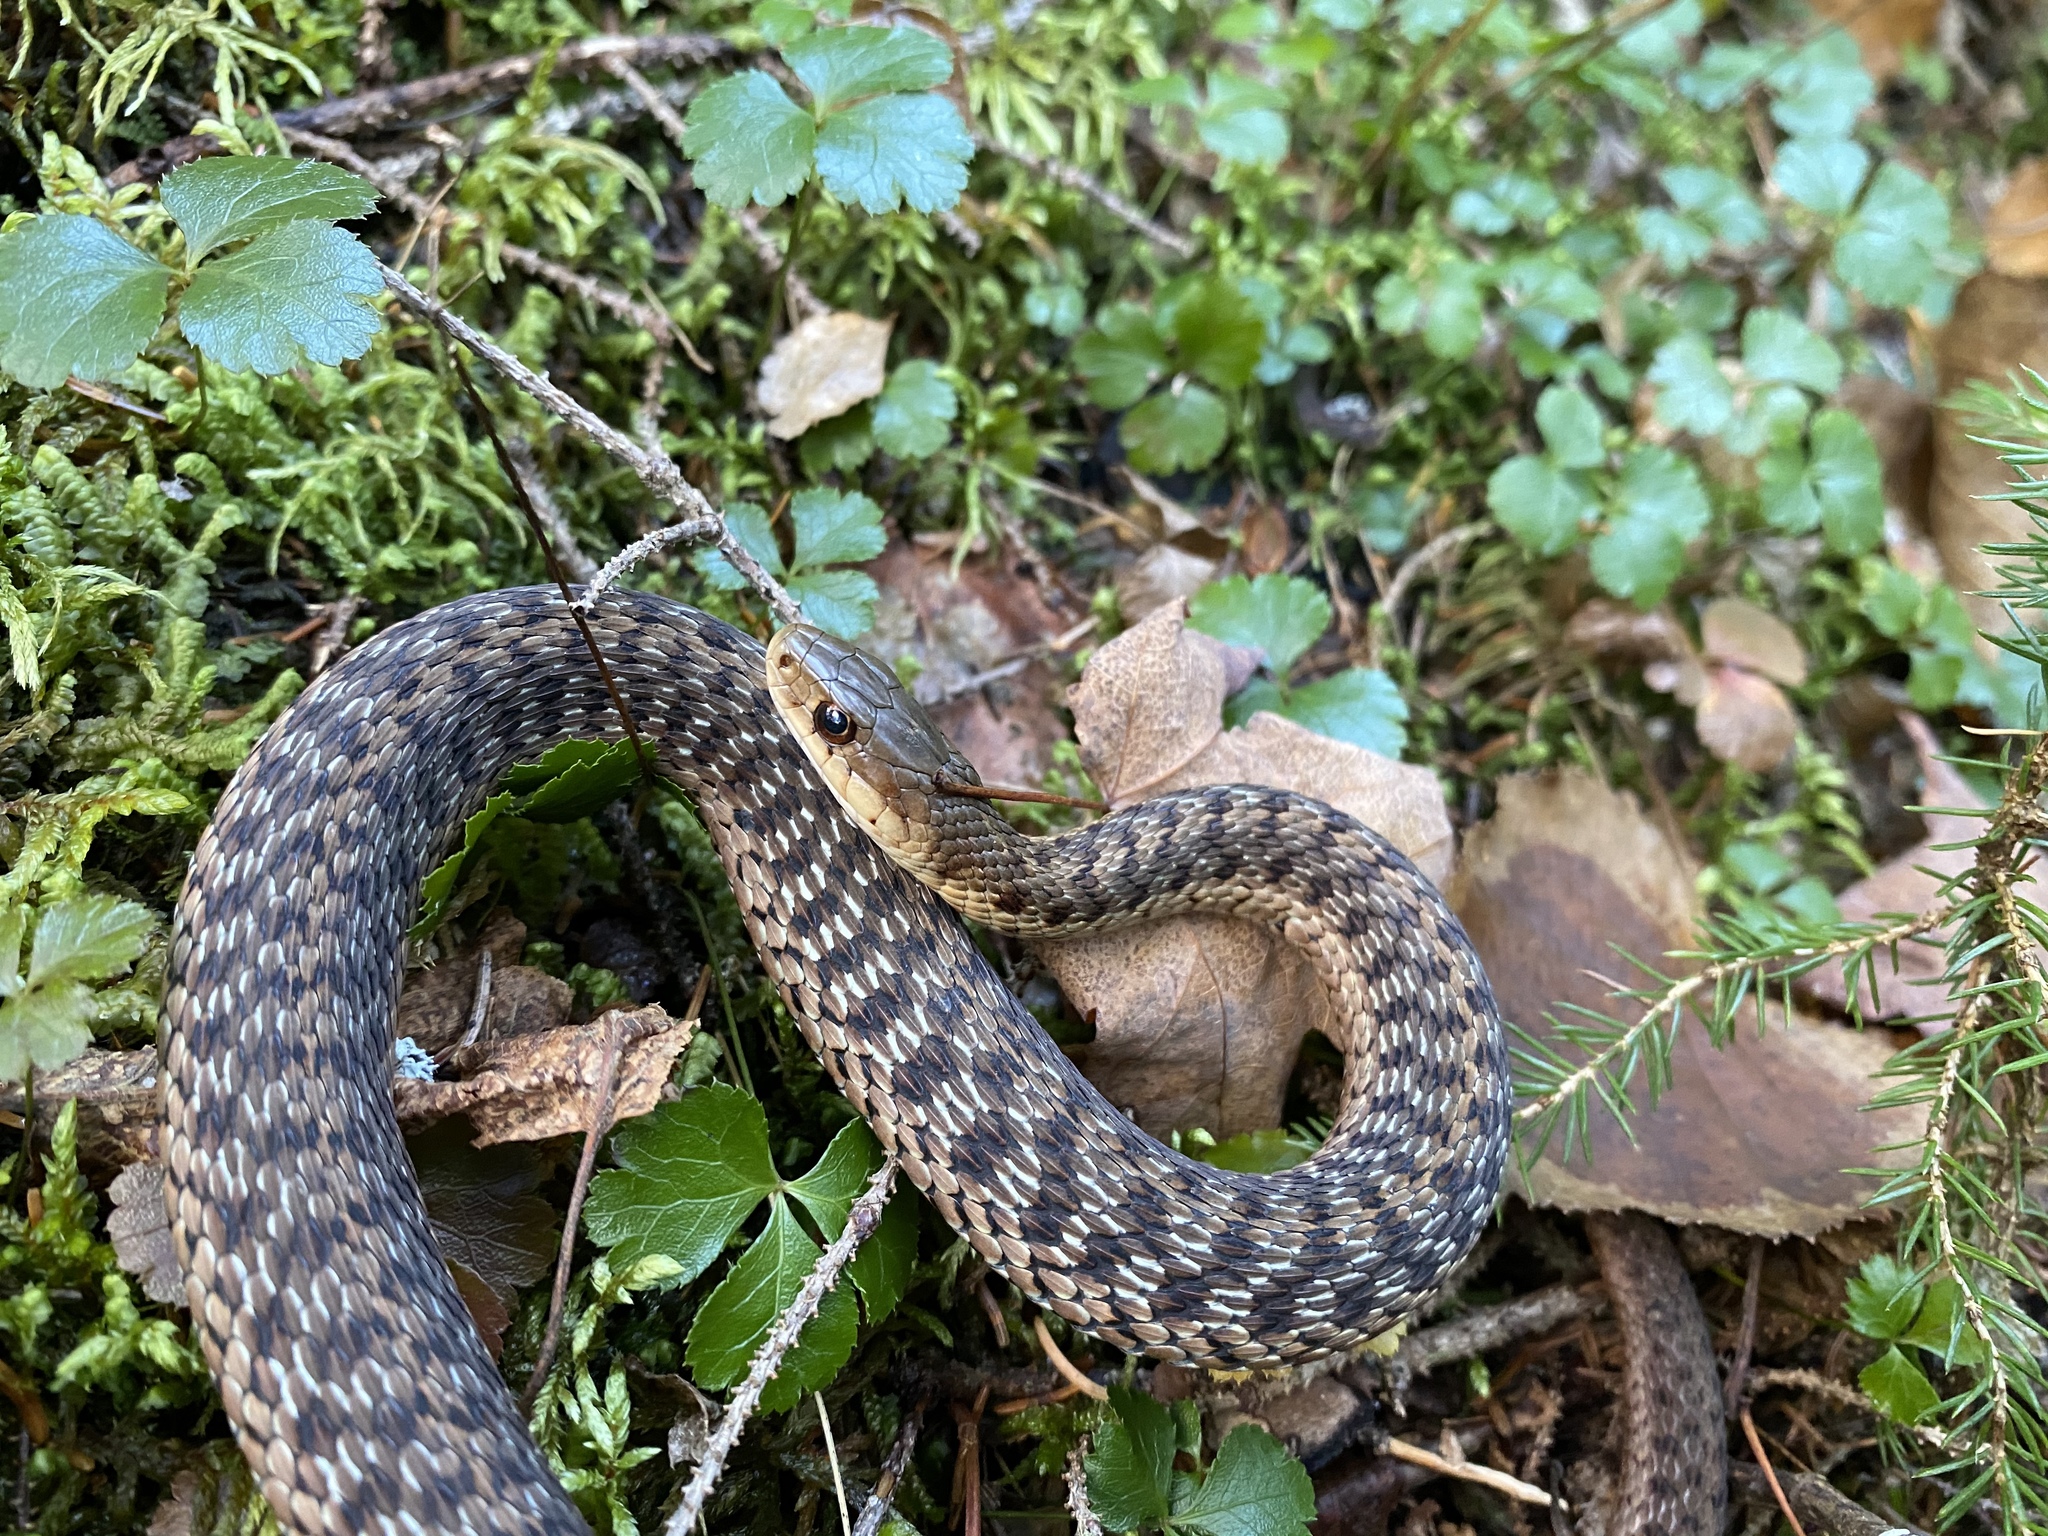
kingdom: Animalia
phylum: Chordata
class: Squamata
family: Colubridae
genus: Thamnophis
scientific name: Thamnophis sirtalis
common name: Common garter snake
